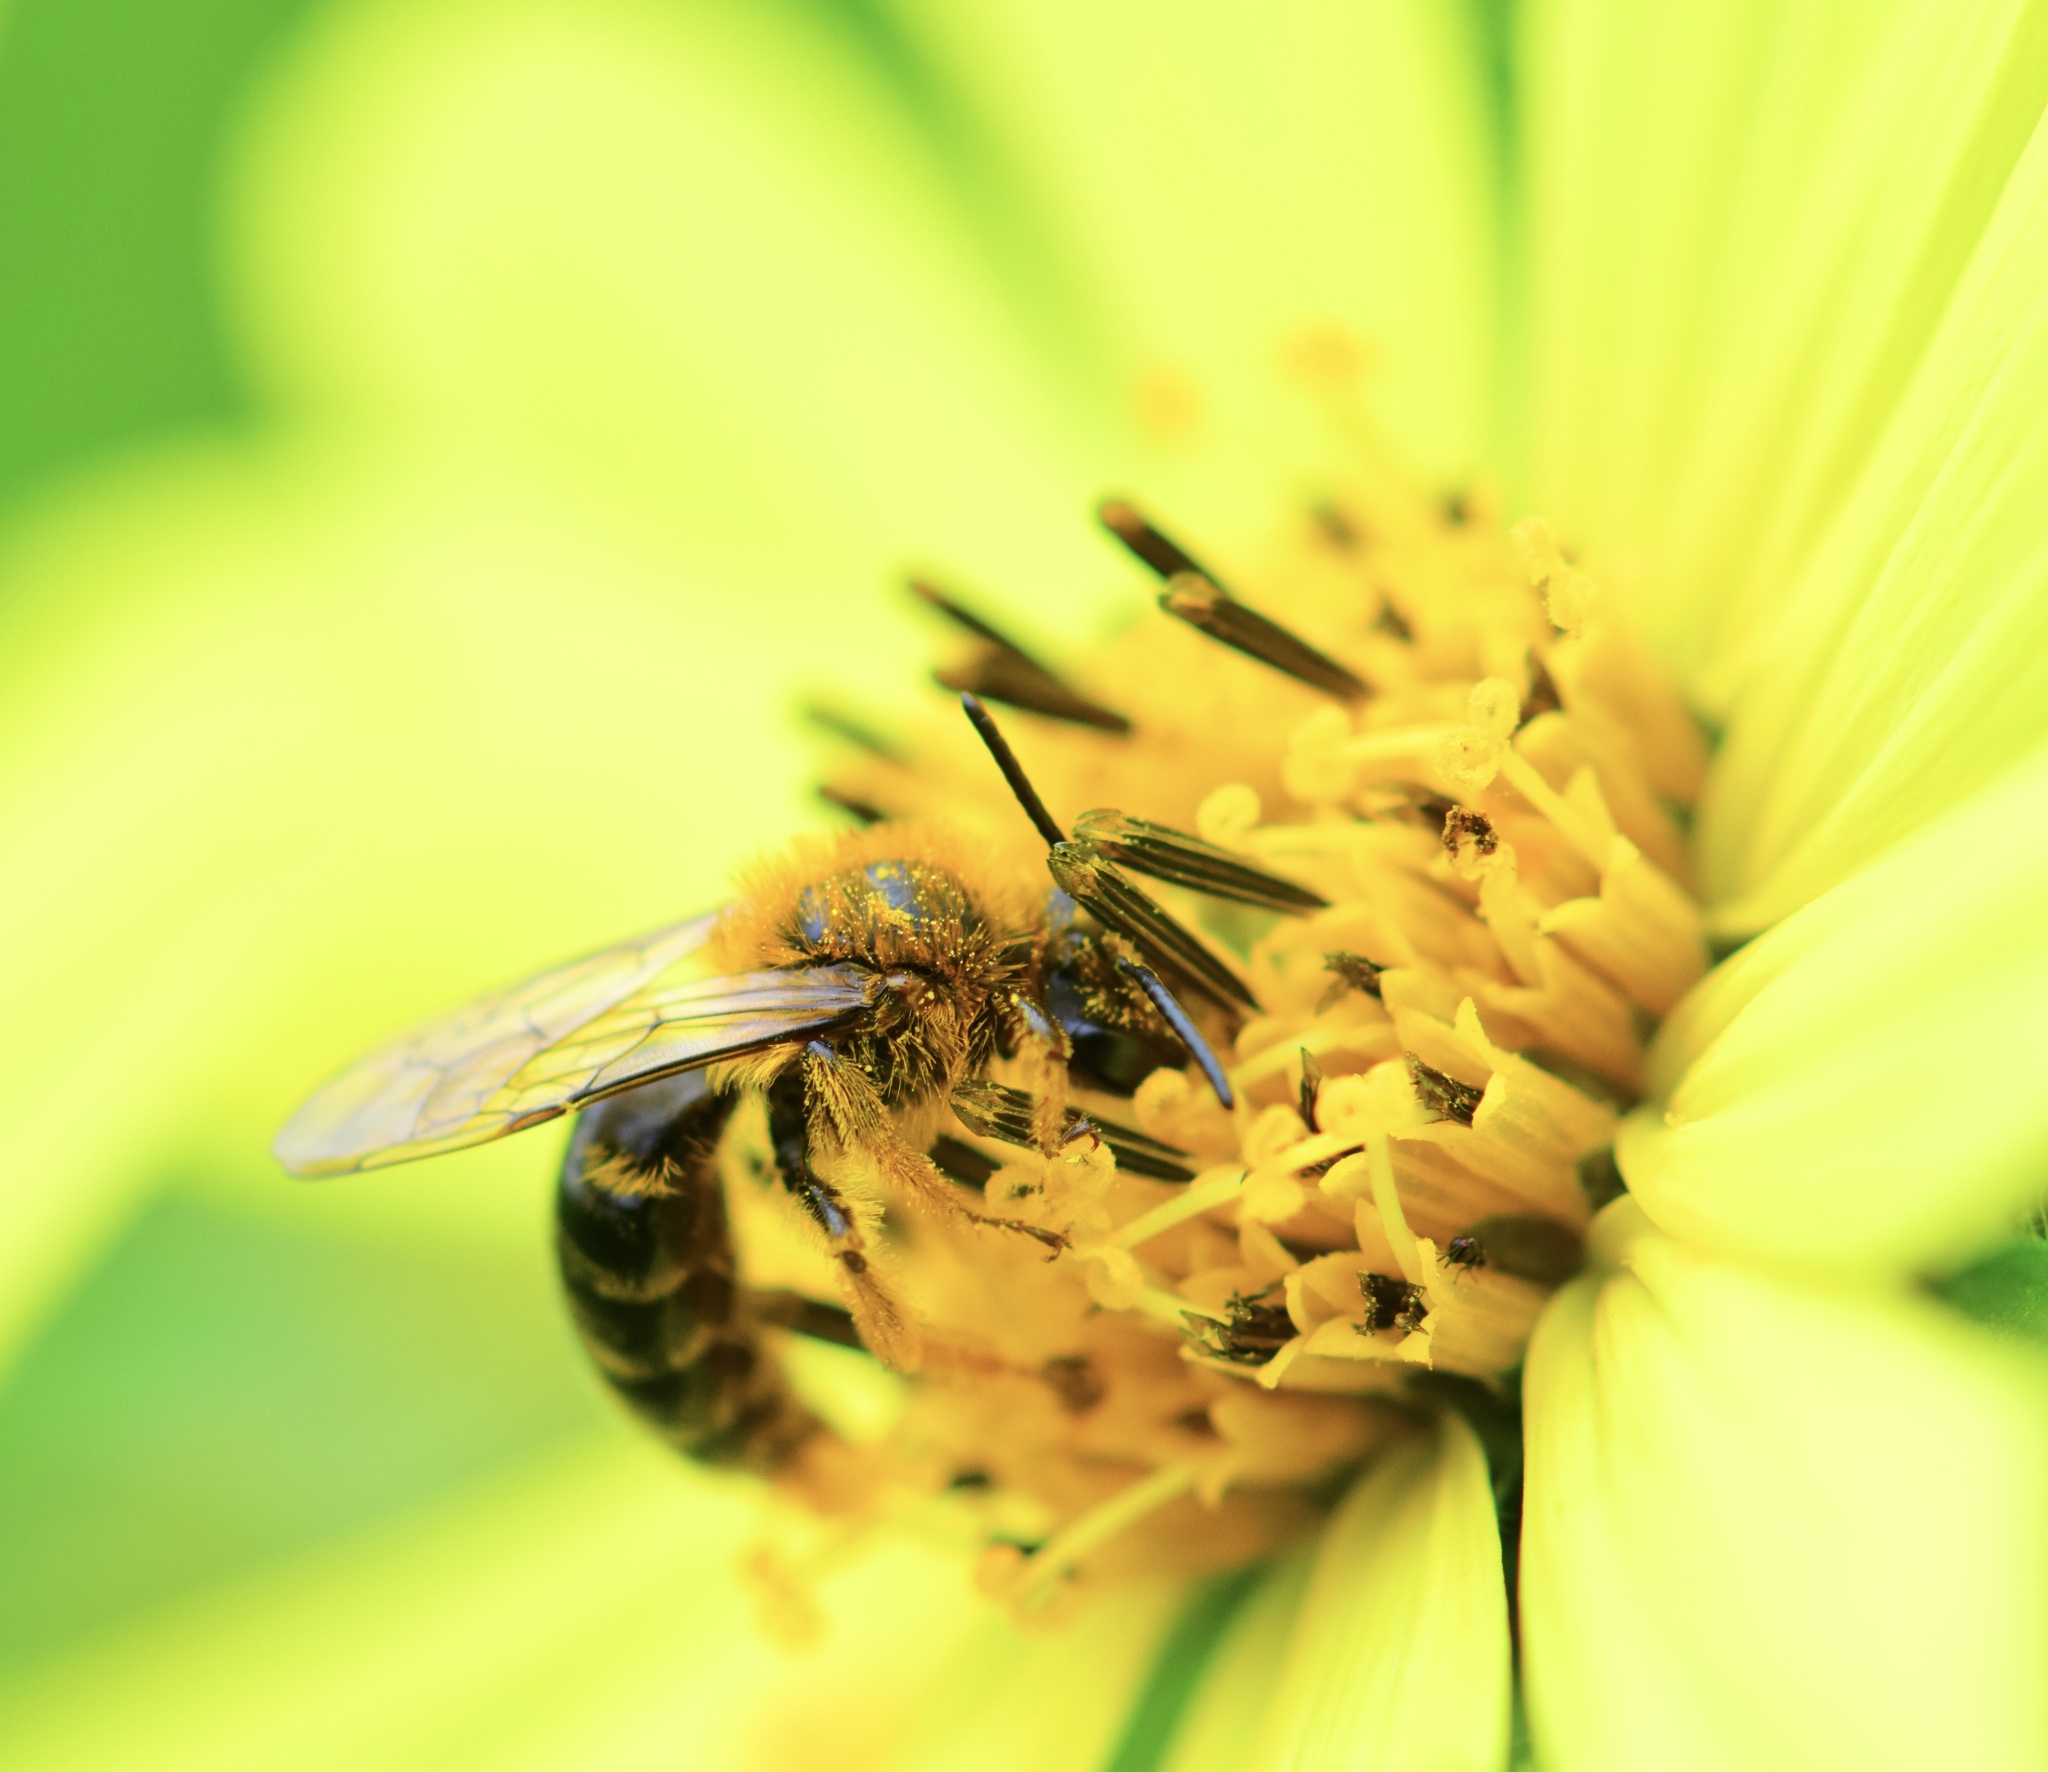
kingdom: Animalia
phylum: Arthropoda
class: Insecta
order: Hymenoptera
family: Andrenidae
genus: Andrena
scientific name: Andrena helianthi
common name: Sunflower mining bee
